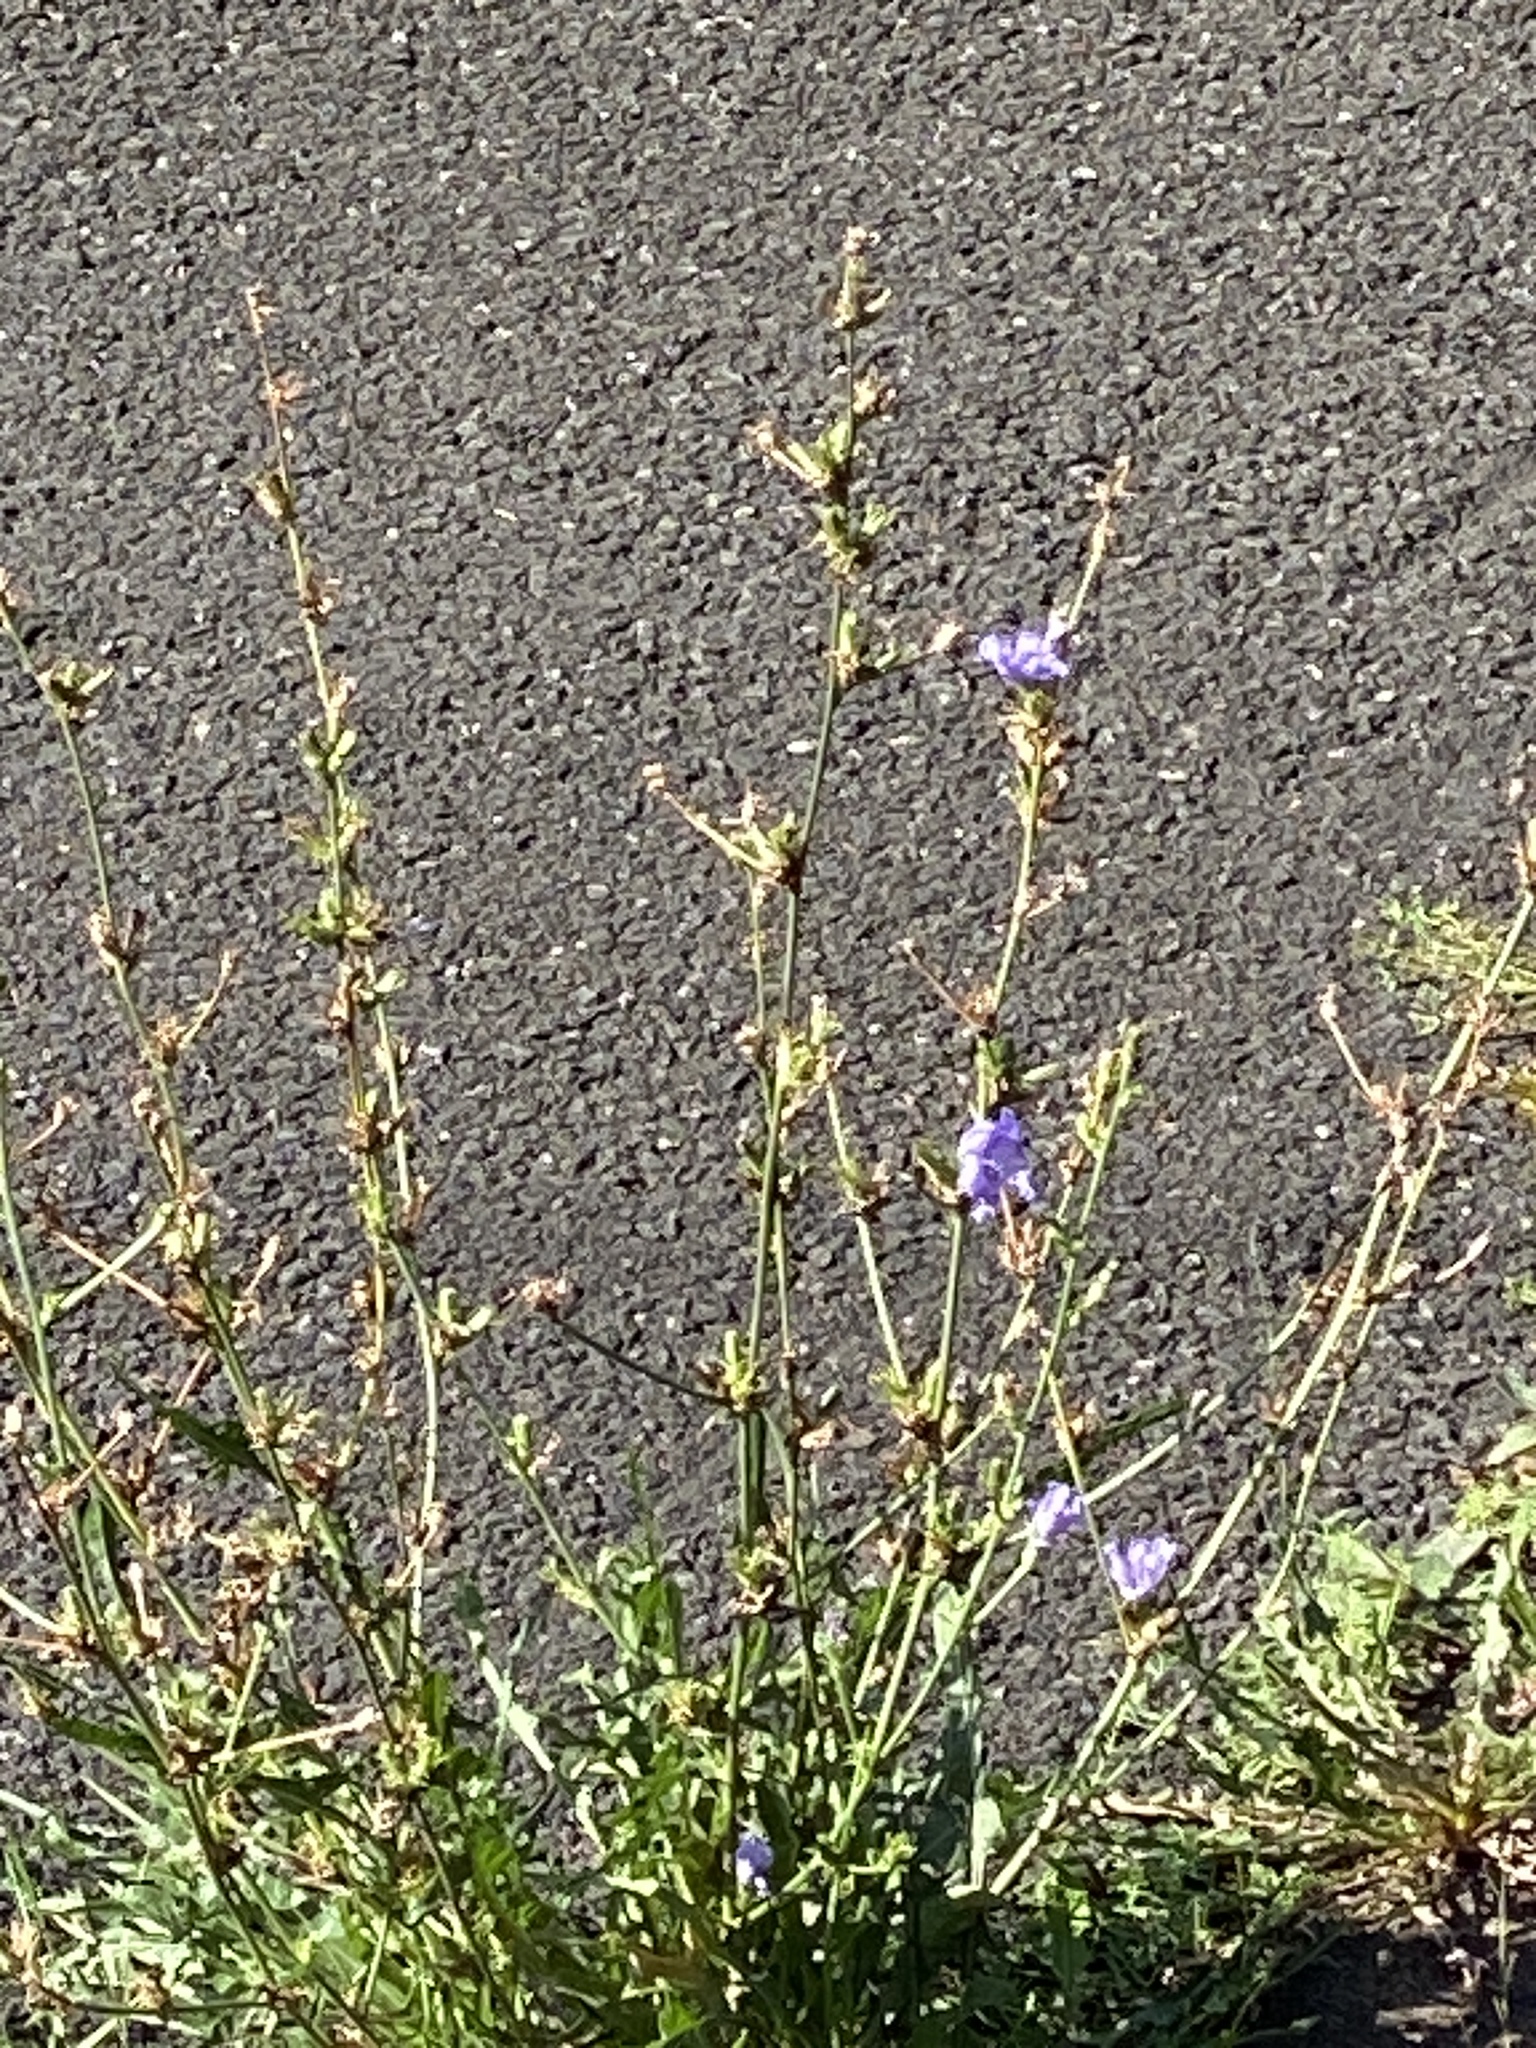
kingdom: Plantae
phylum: Tracheophyta
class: Magnoliopsida
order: Asterales
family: Asteraceae
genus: Cichorium
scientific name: Cichorium intybus
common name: Chicory
